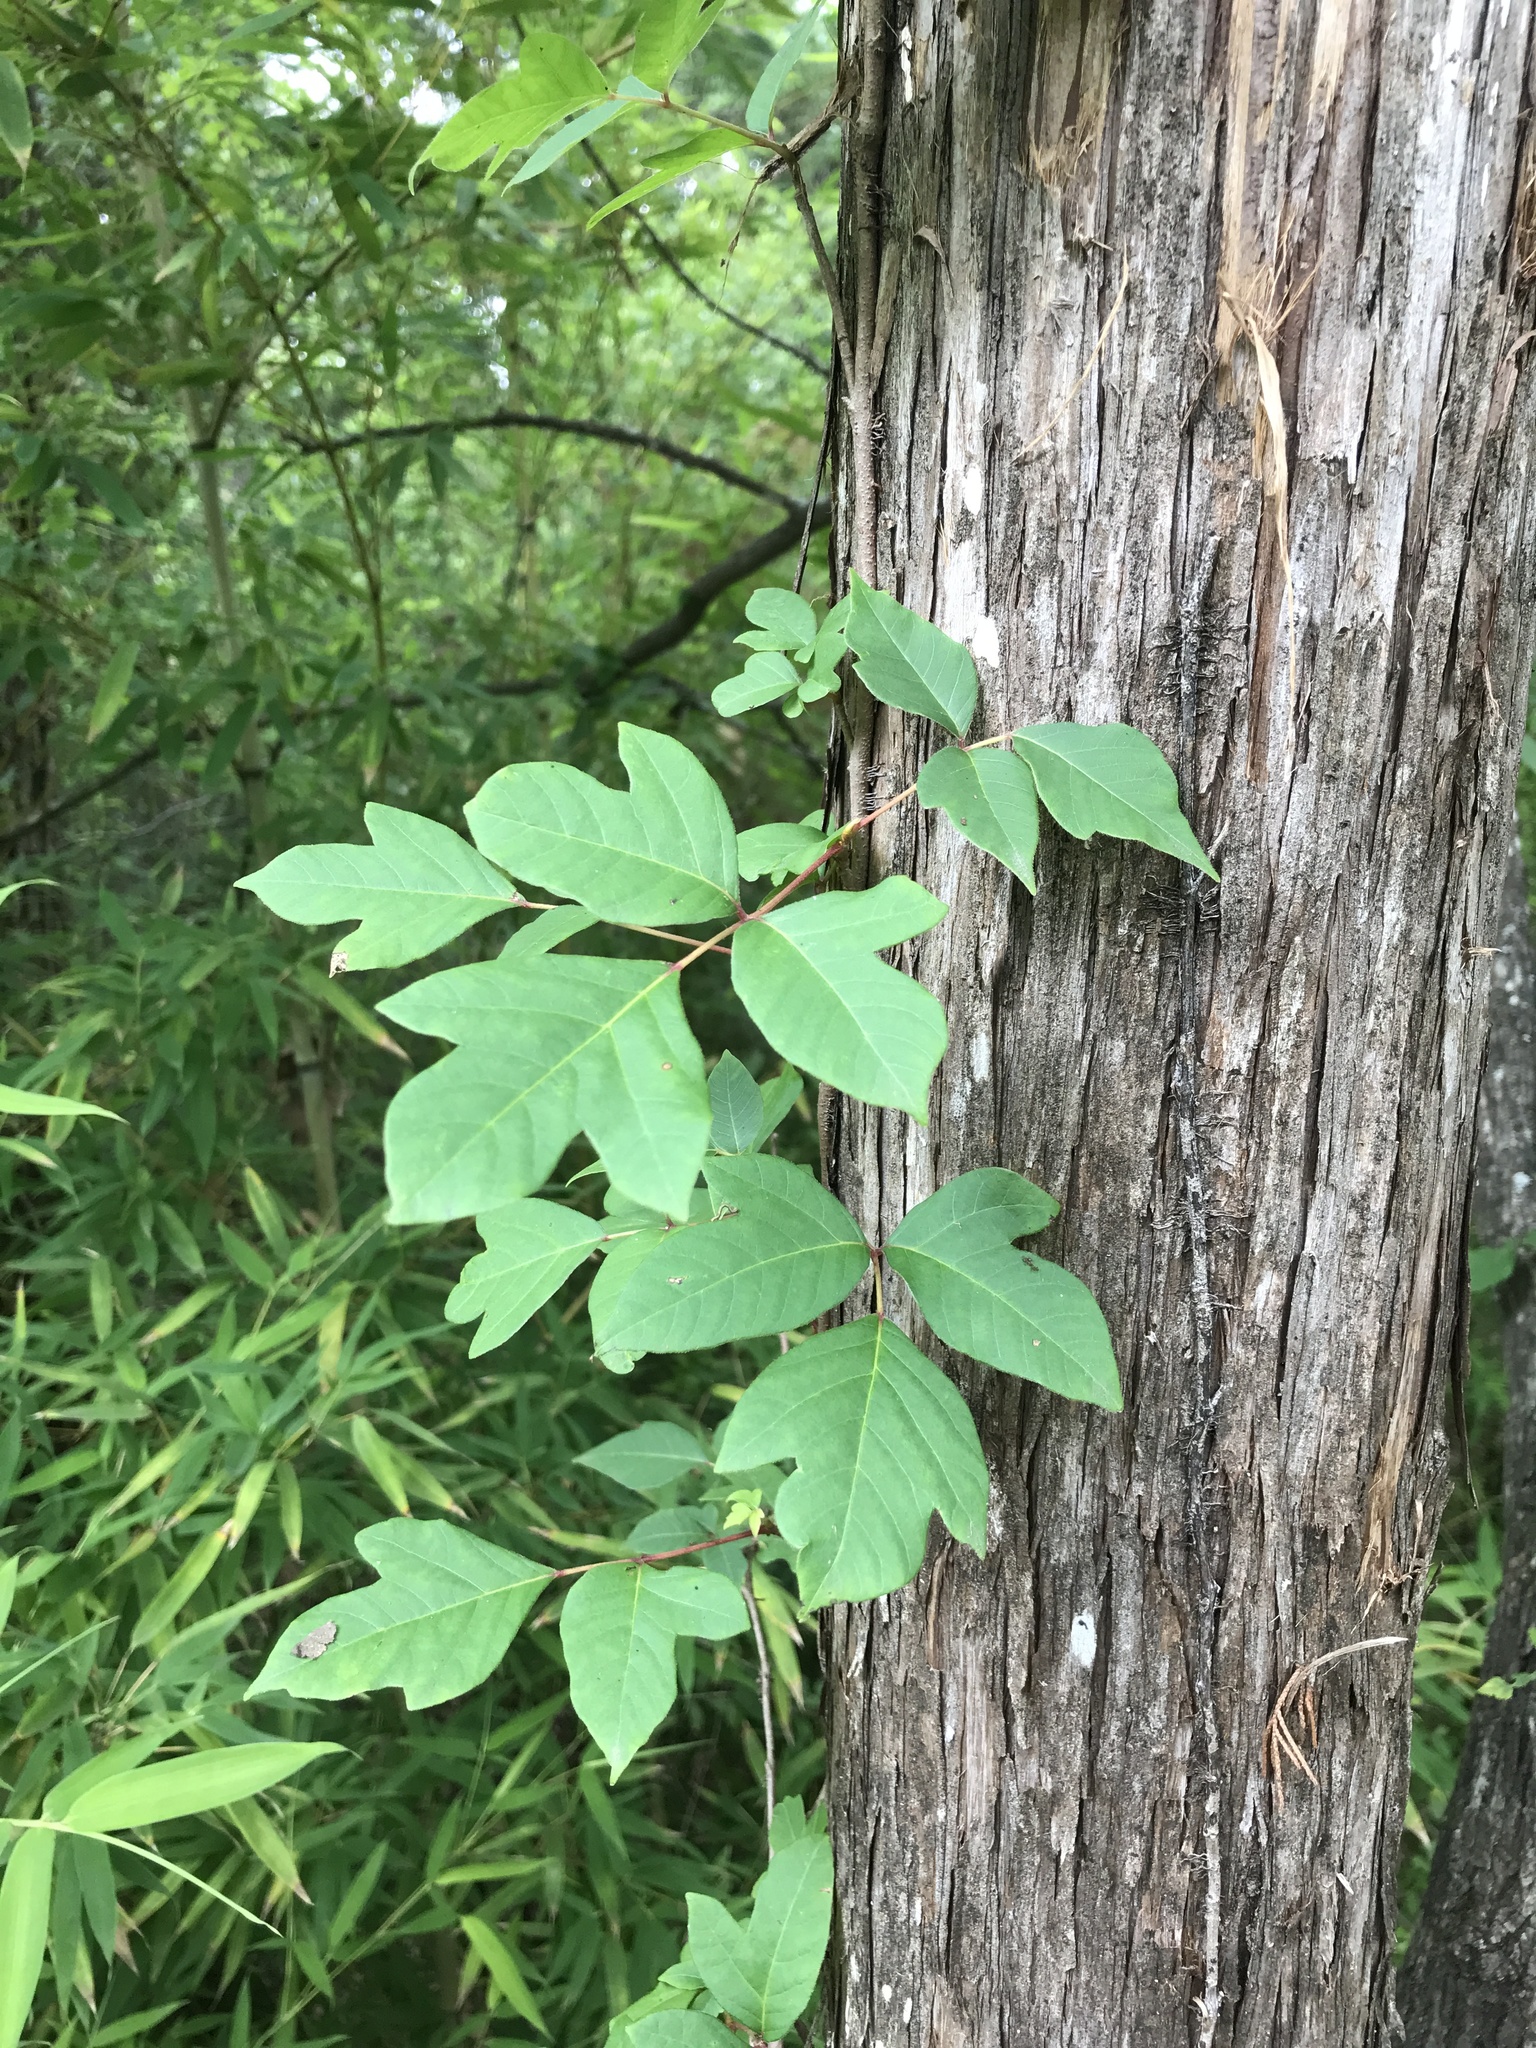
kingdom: Plantae
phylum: Tracheophyta
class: Magnoliopsida
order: Sapindales
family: Anacardiaceae
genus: Toxicodendron
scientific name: Toxicodendron radicans
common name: Poison ivy
